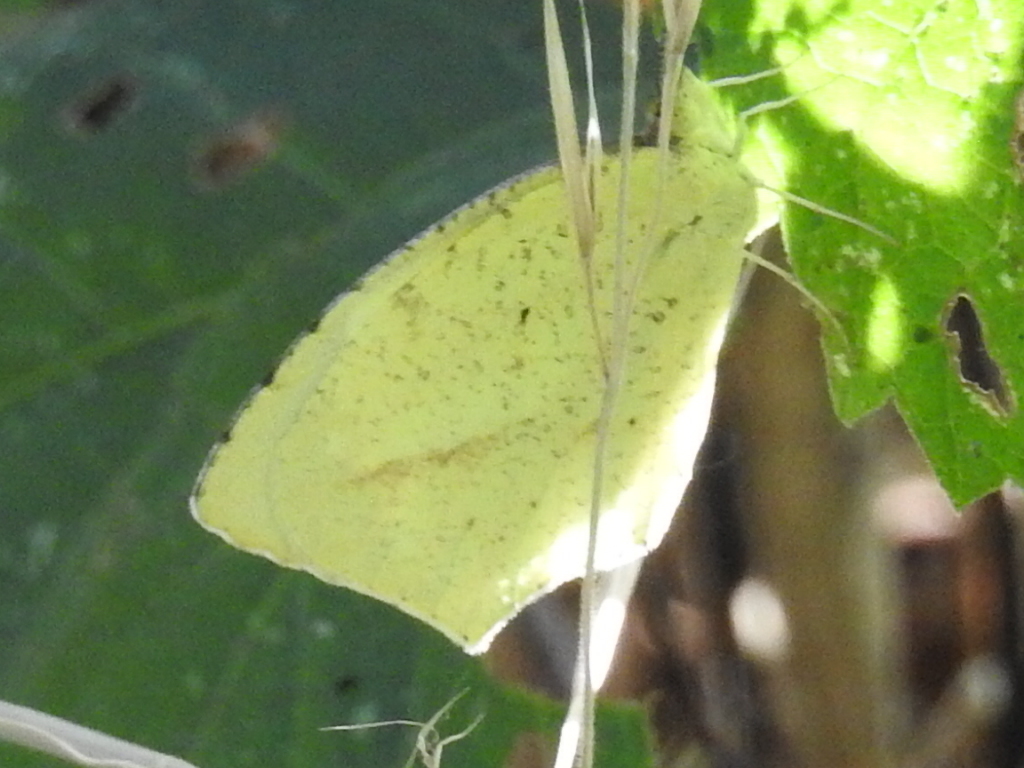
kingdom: Animalia
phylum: Arthropoda
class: Insecta
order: Lepidoptera
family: Pieridae
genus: Abaeis
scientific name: Abaeis mexicana
